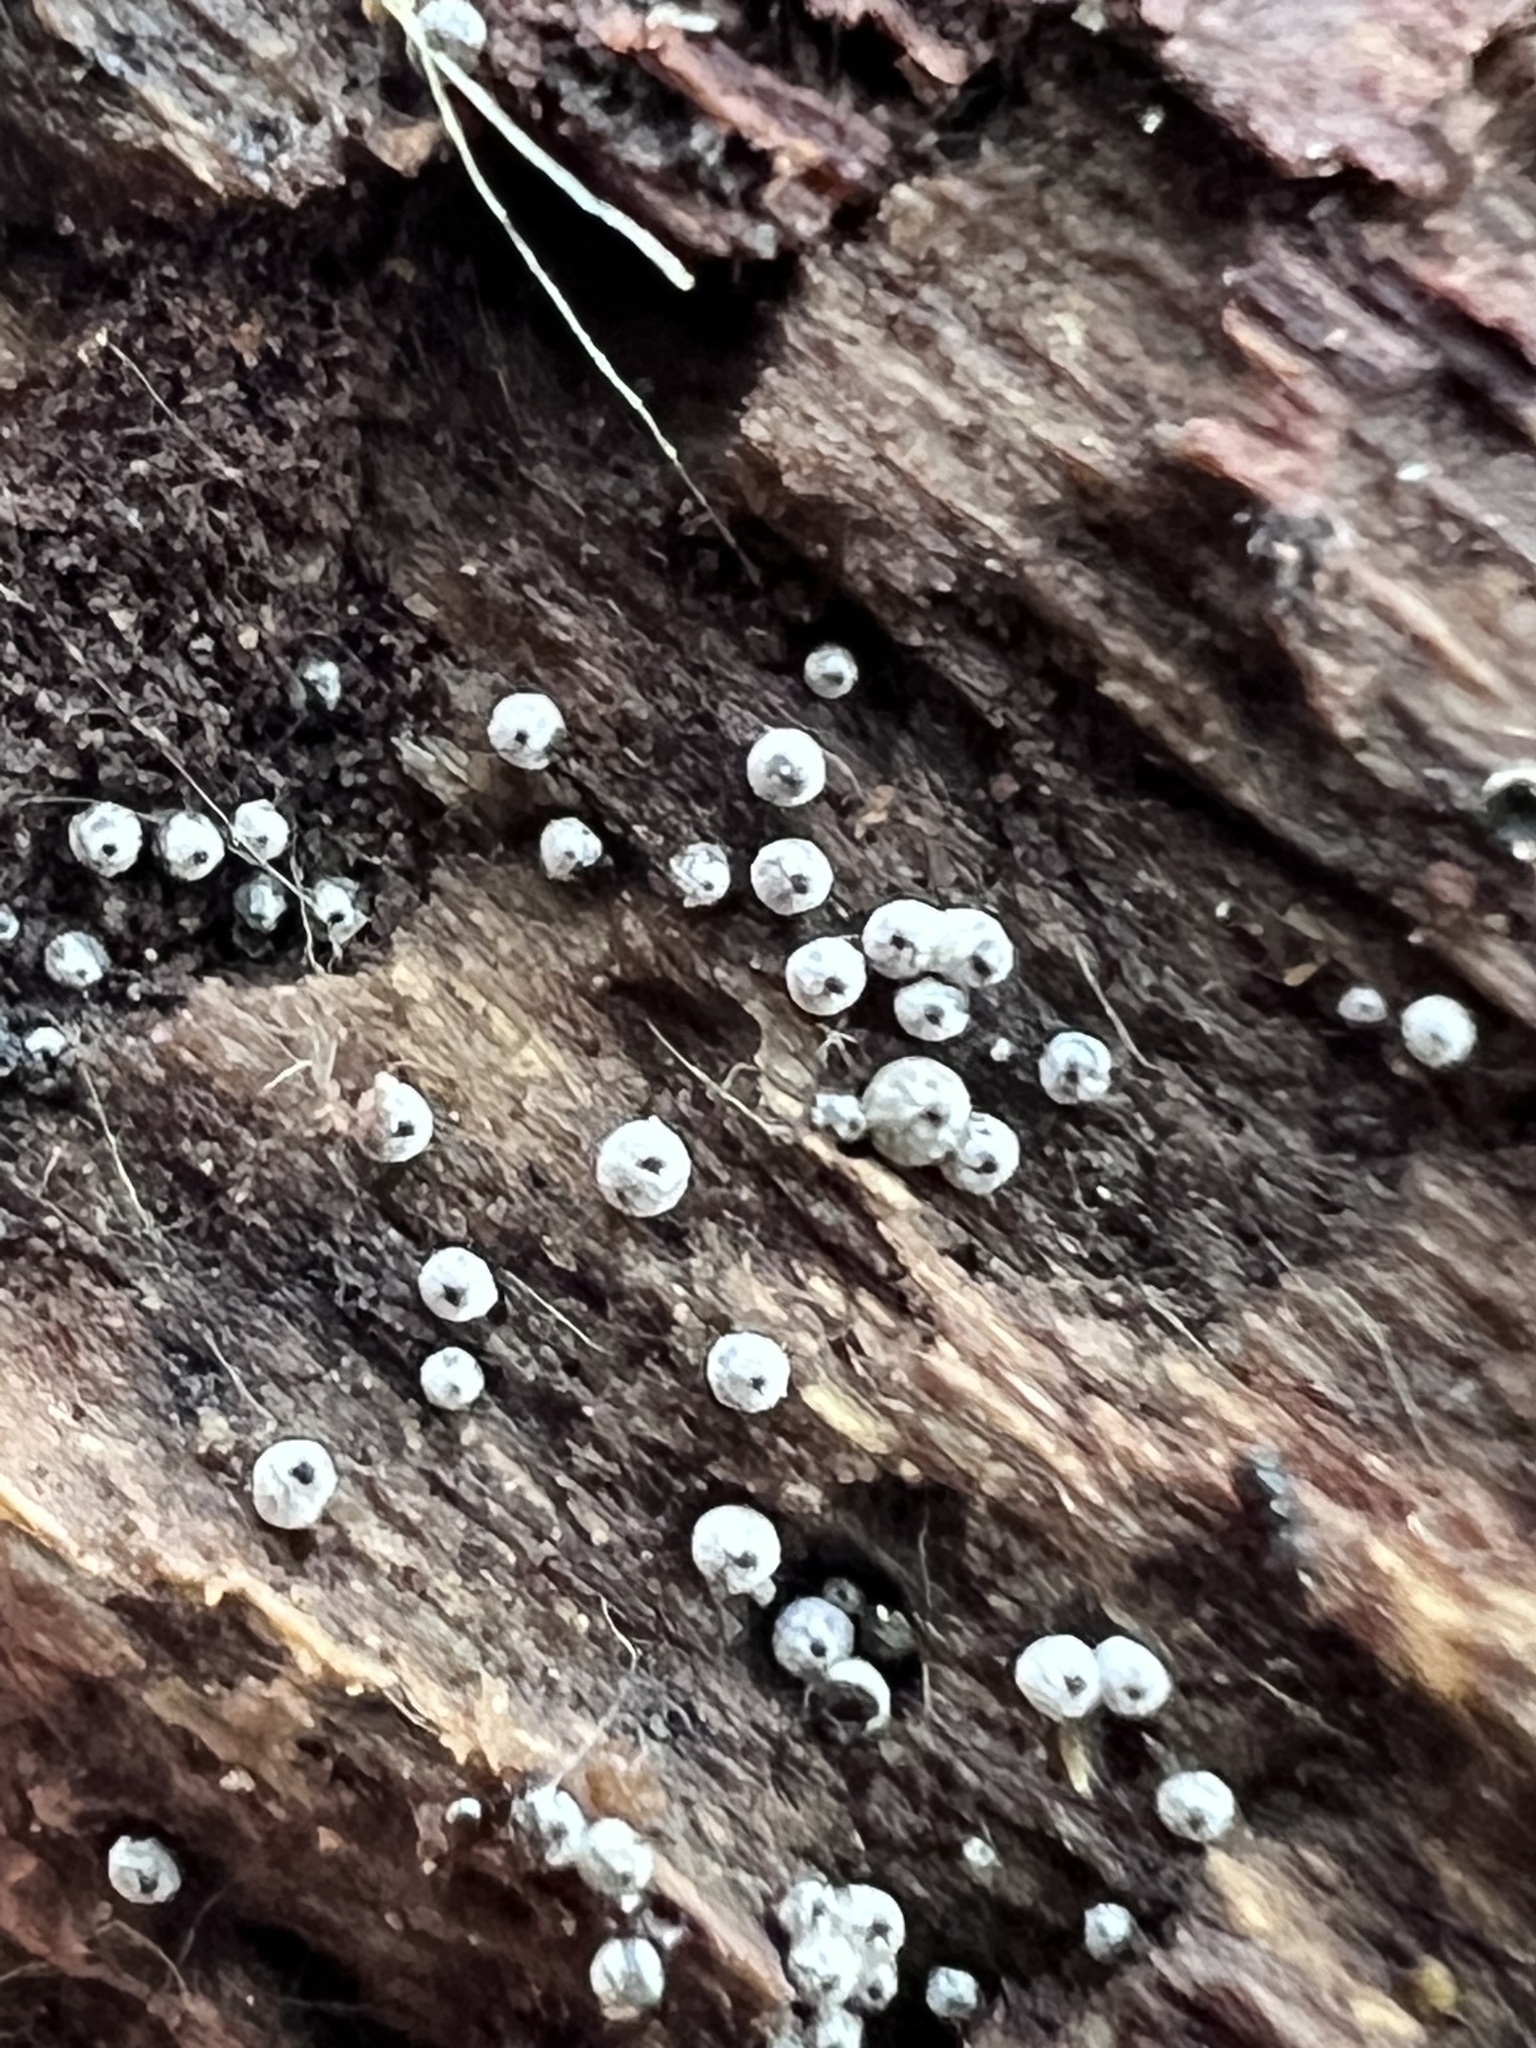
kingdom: Fungi
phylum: Ascomycota
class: Sordariomycetes
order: Sordariales
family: Lasiosphaeriaceae
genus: Lasiosphaeria
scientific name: Lasiosphaeria ovina
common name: Woolly woodwart
